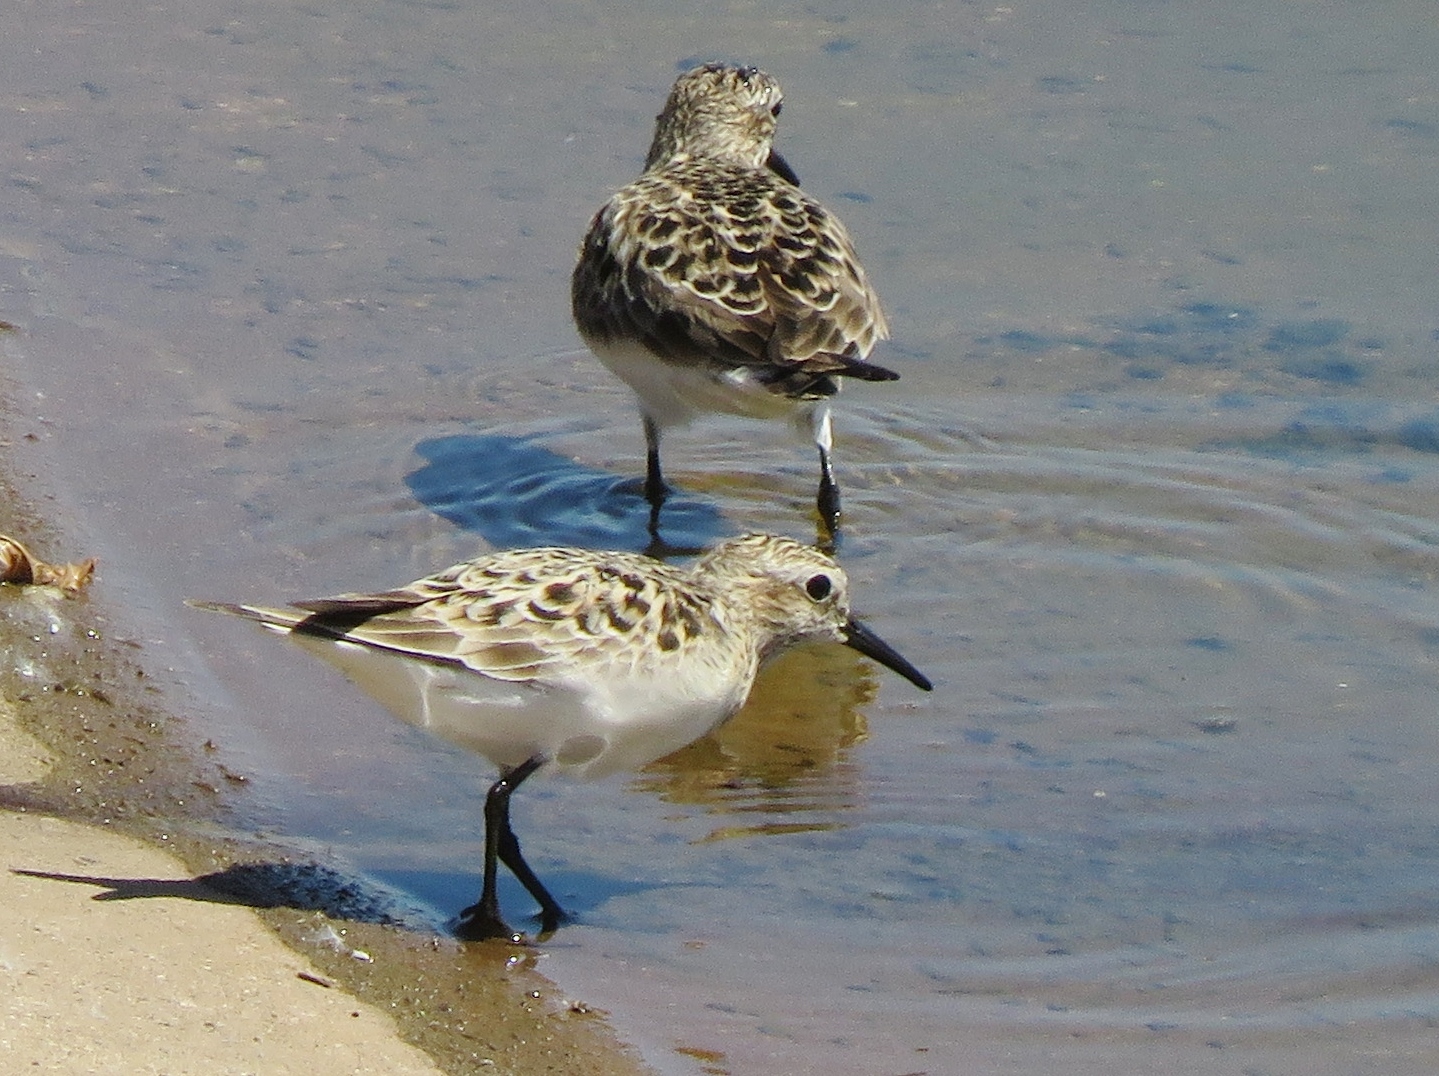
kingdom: Animalia
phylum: Chordata
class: Aves
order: Charadriiformes
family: Scolopacidae
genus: Calidris
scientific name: Calidris bairdii
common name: Baird's sandpiper
